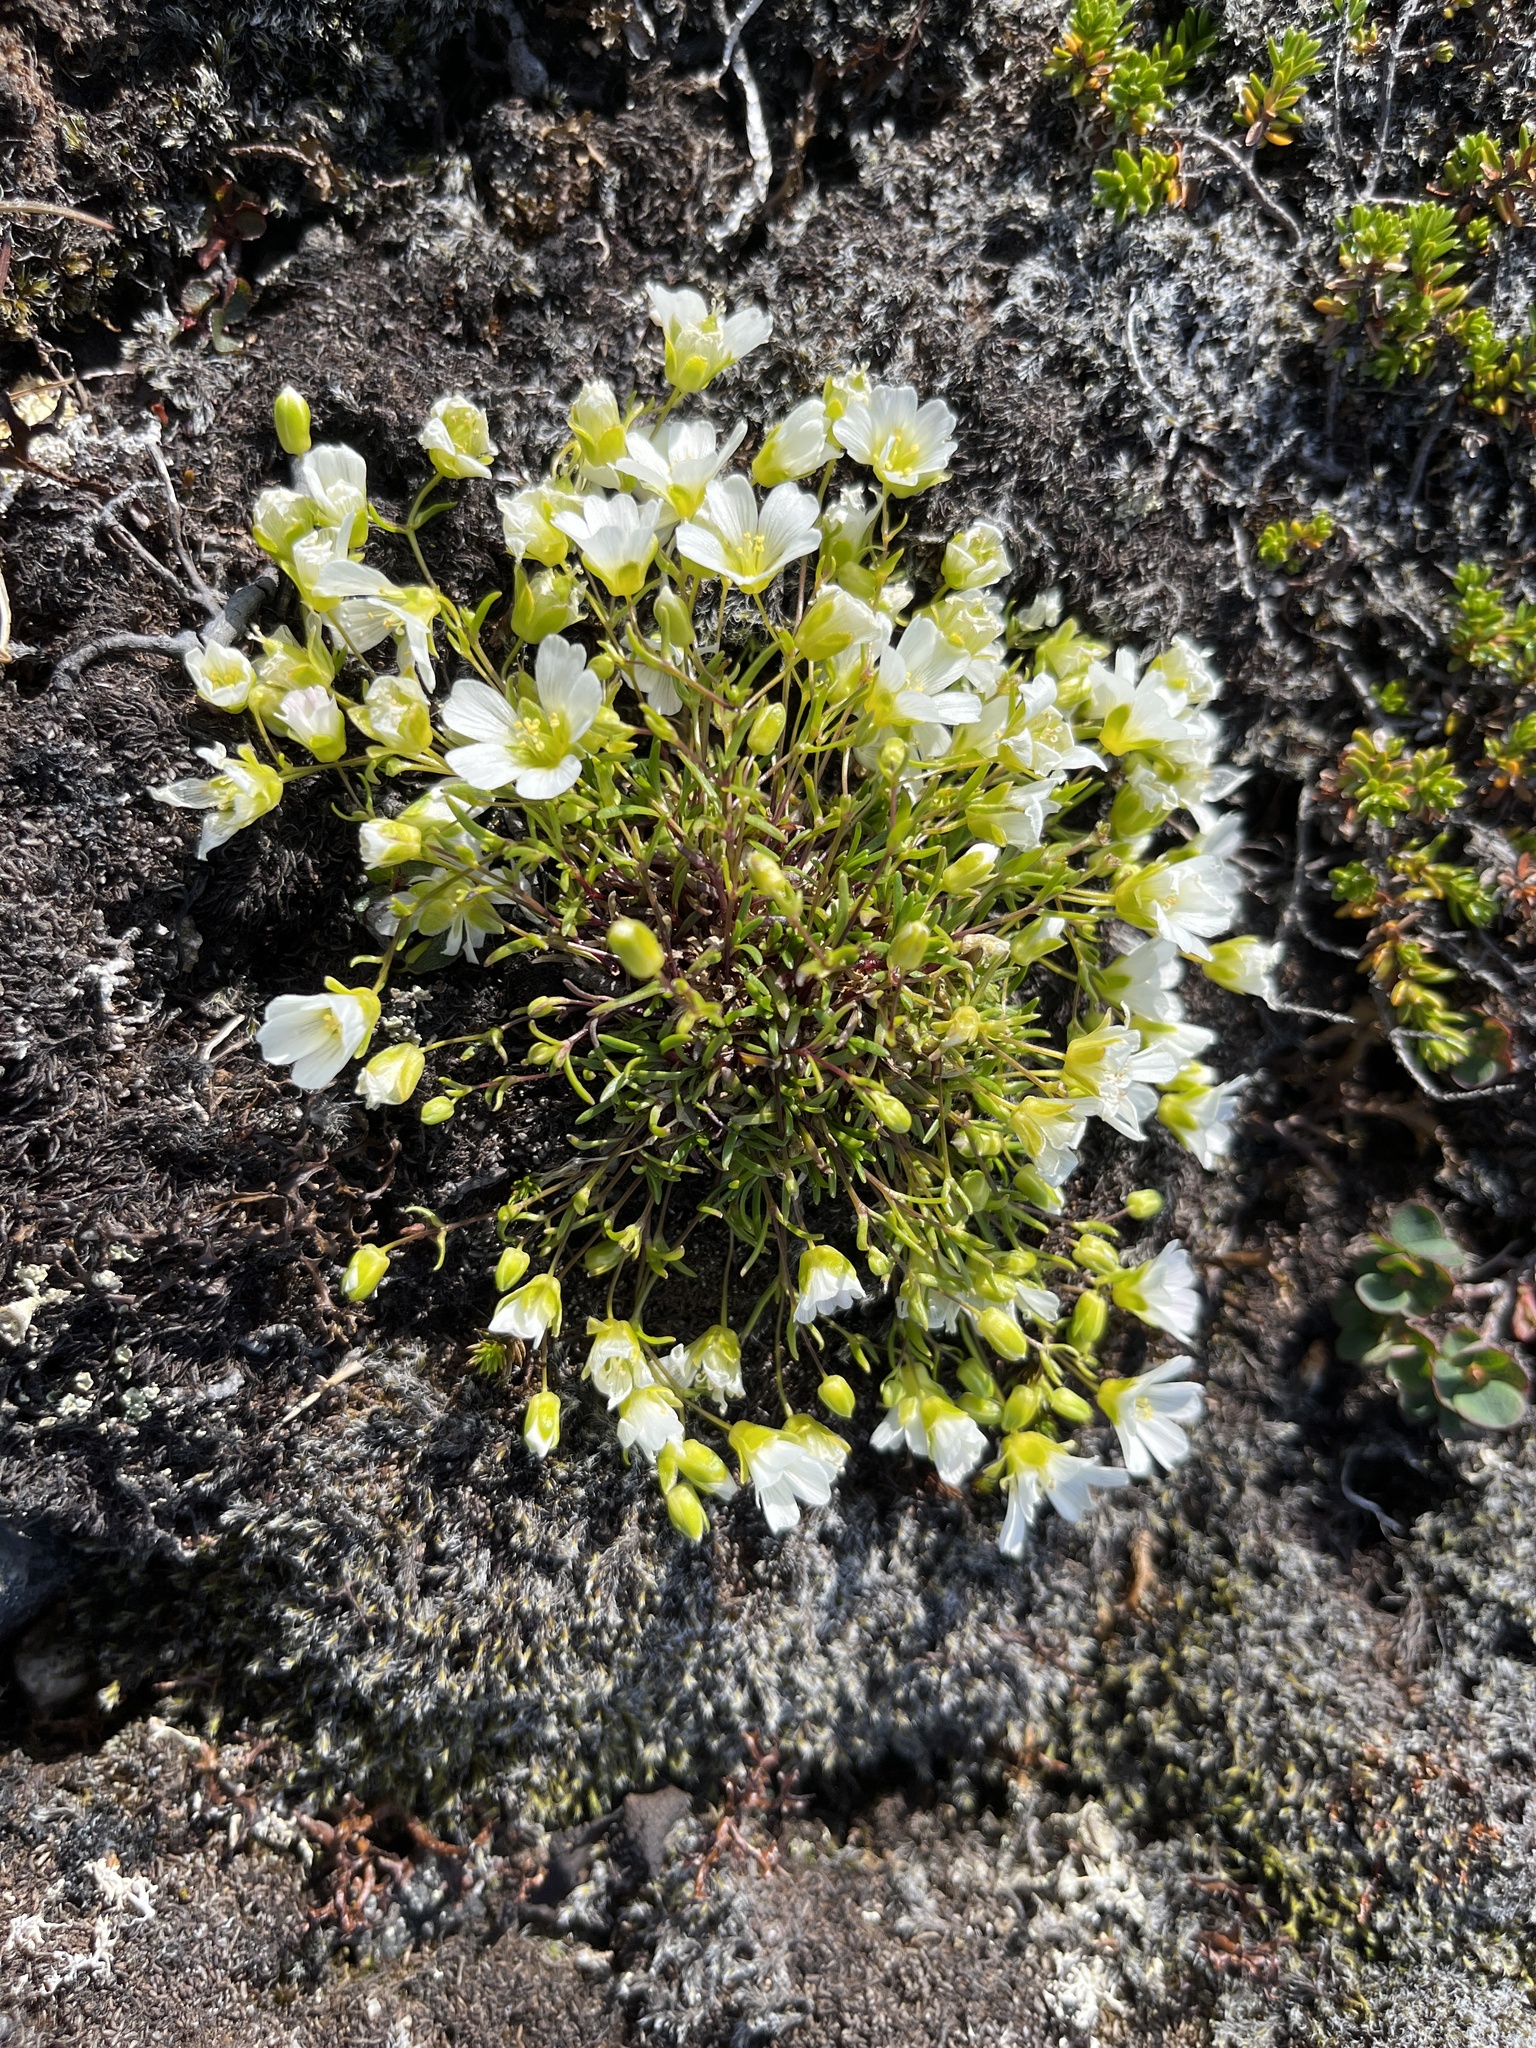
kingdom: Plantae
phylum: Tracheophyta
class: Magnoliopsida
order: Caryophyllales
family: Caryophyllaceae
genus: Geocarpon
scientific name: Geocarpon groenlandicum
